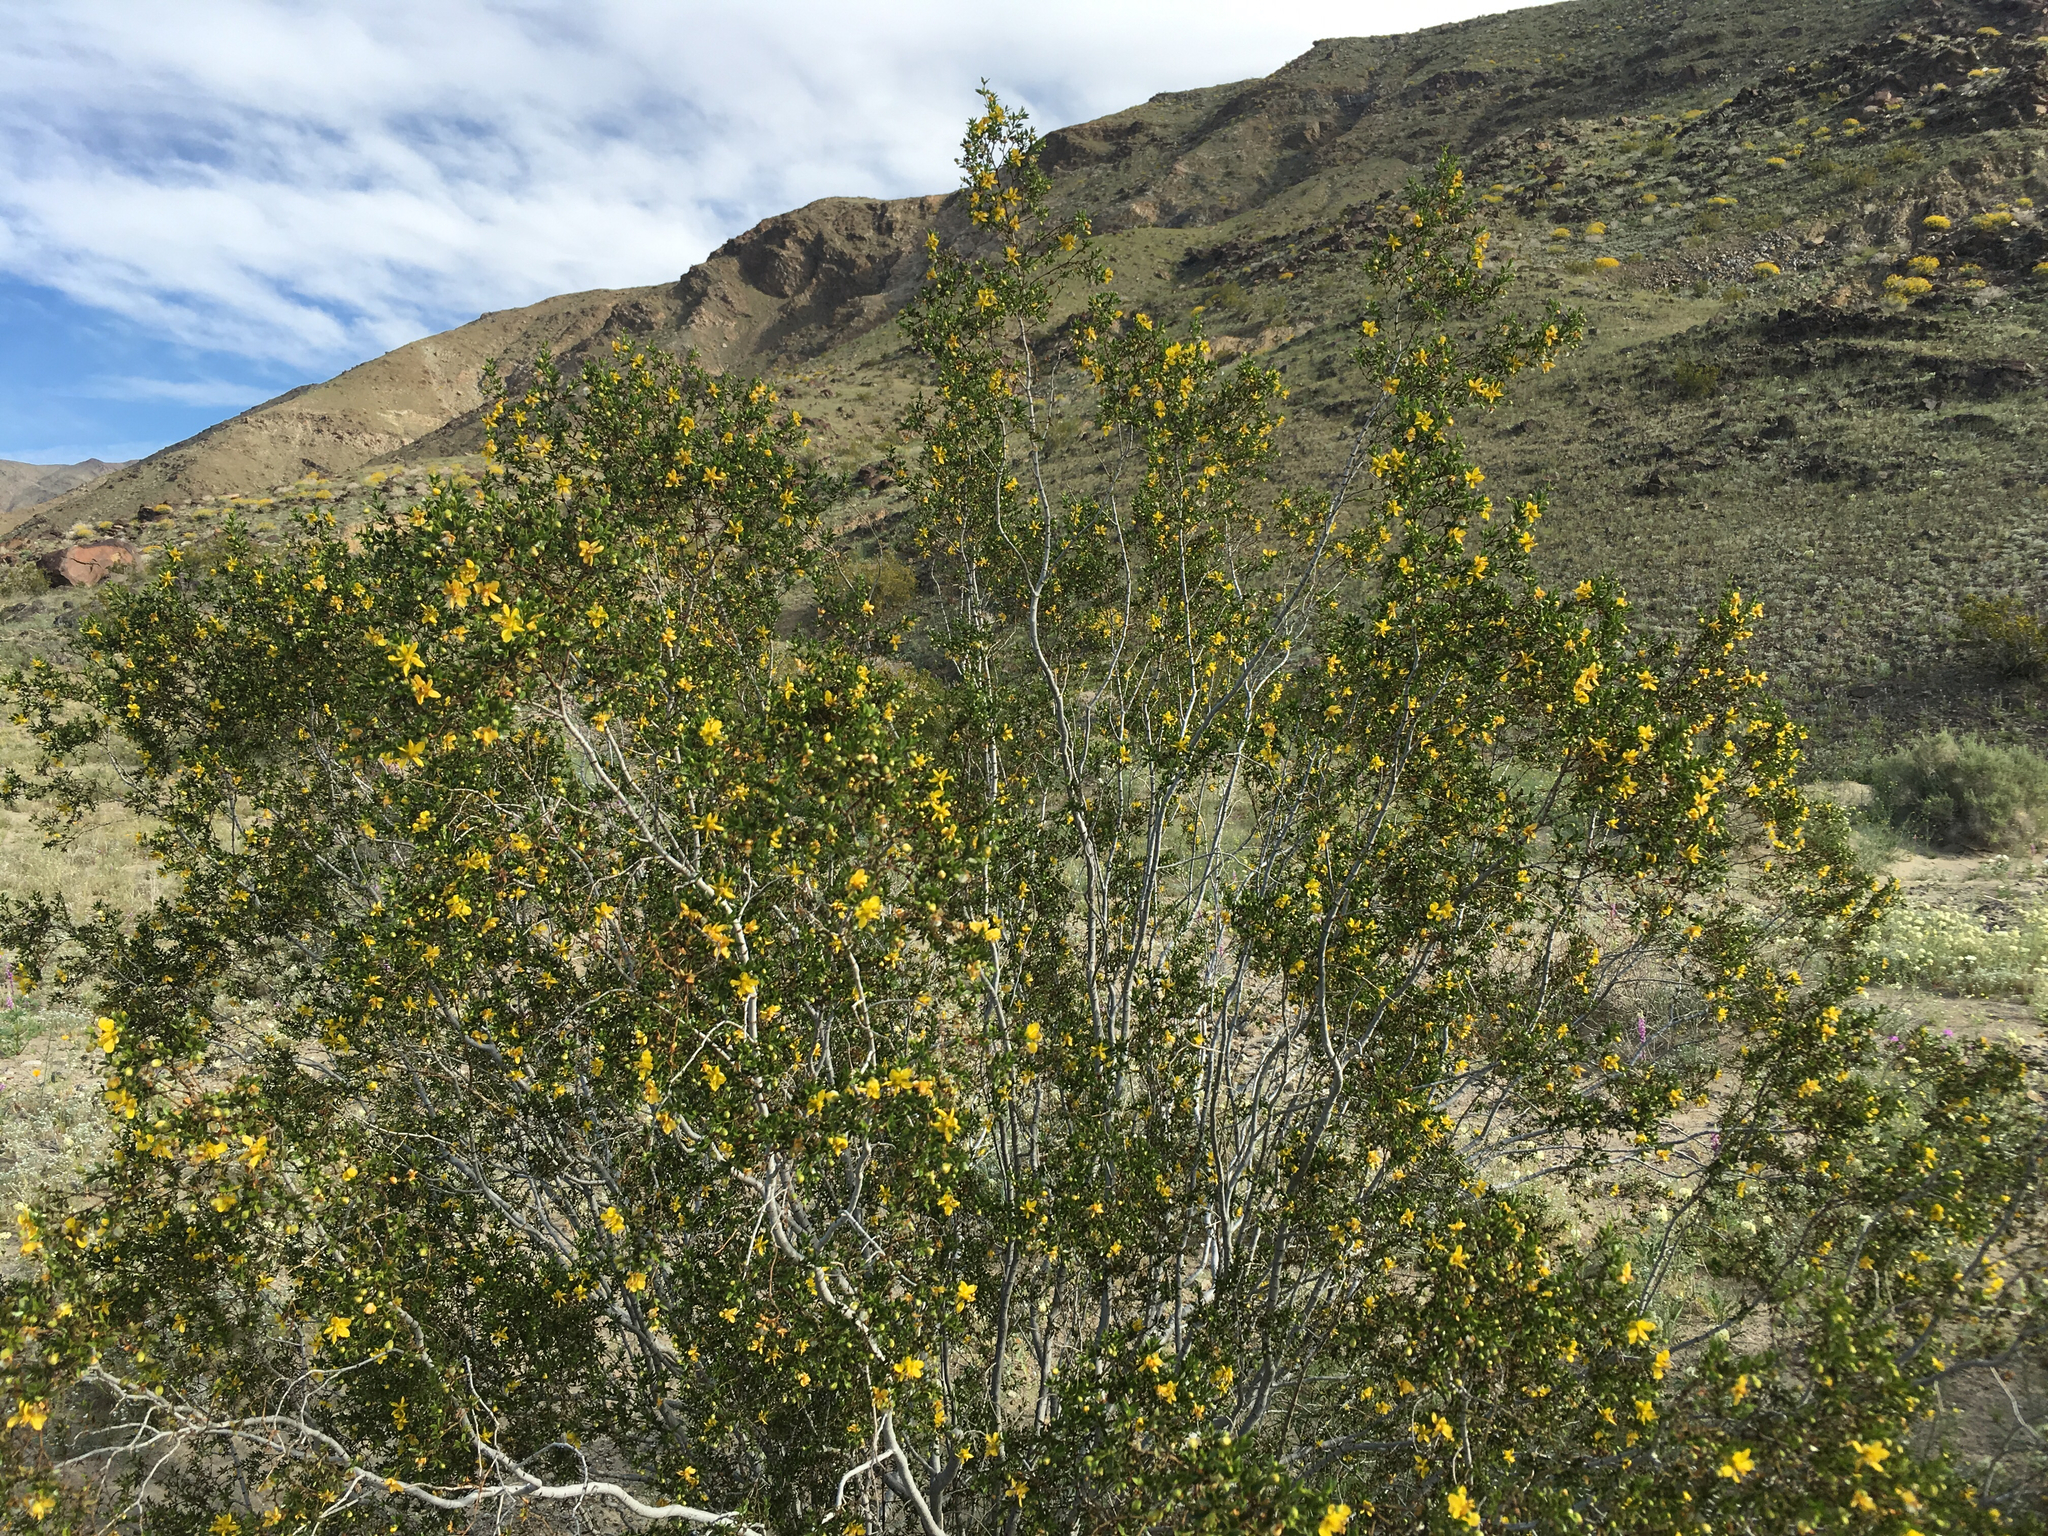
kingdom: Plantae
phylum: Tracheophyta
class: Magnoliopsida
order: Zygophyllales
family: Zygophyllaceae
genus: Larrea
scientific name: Larrea tridentata
